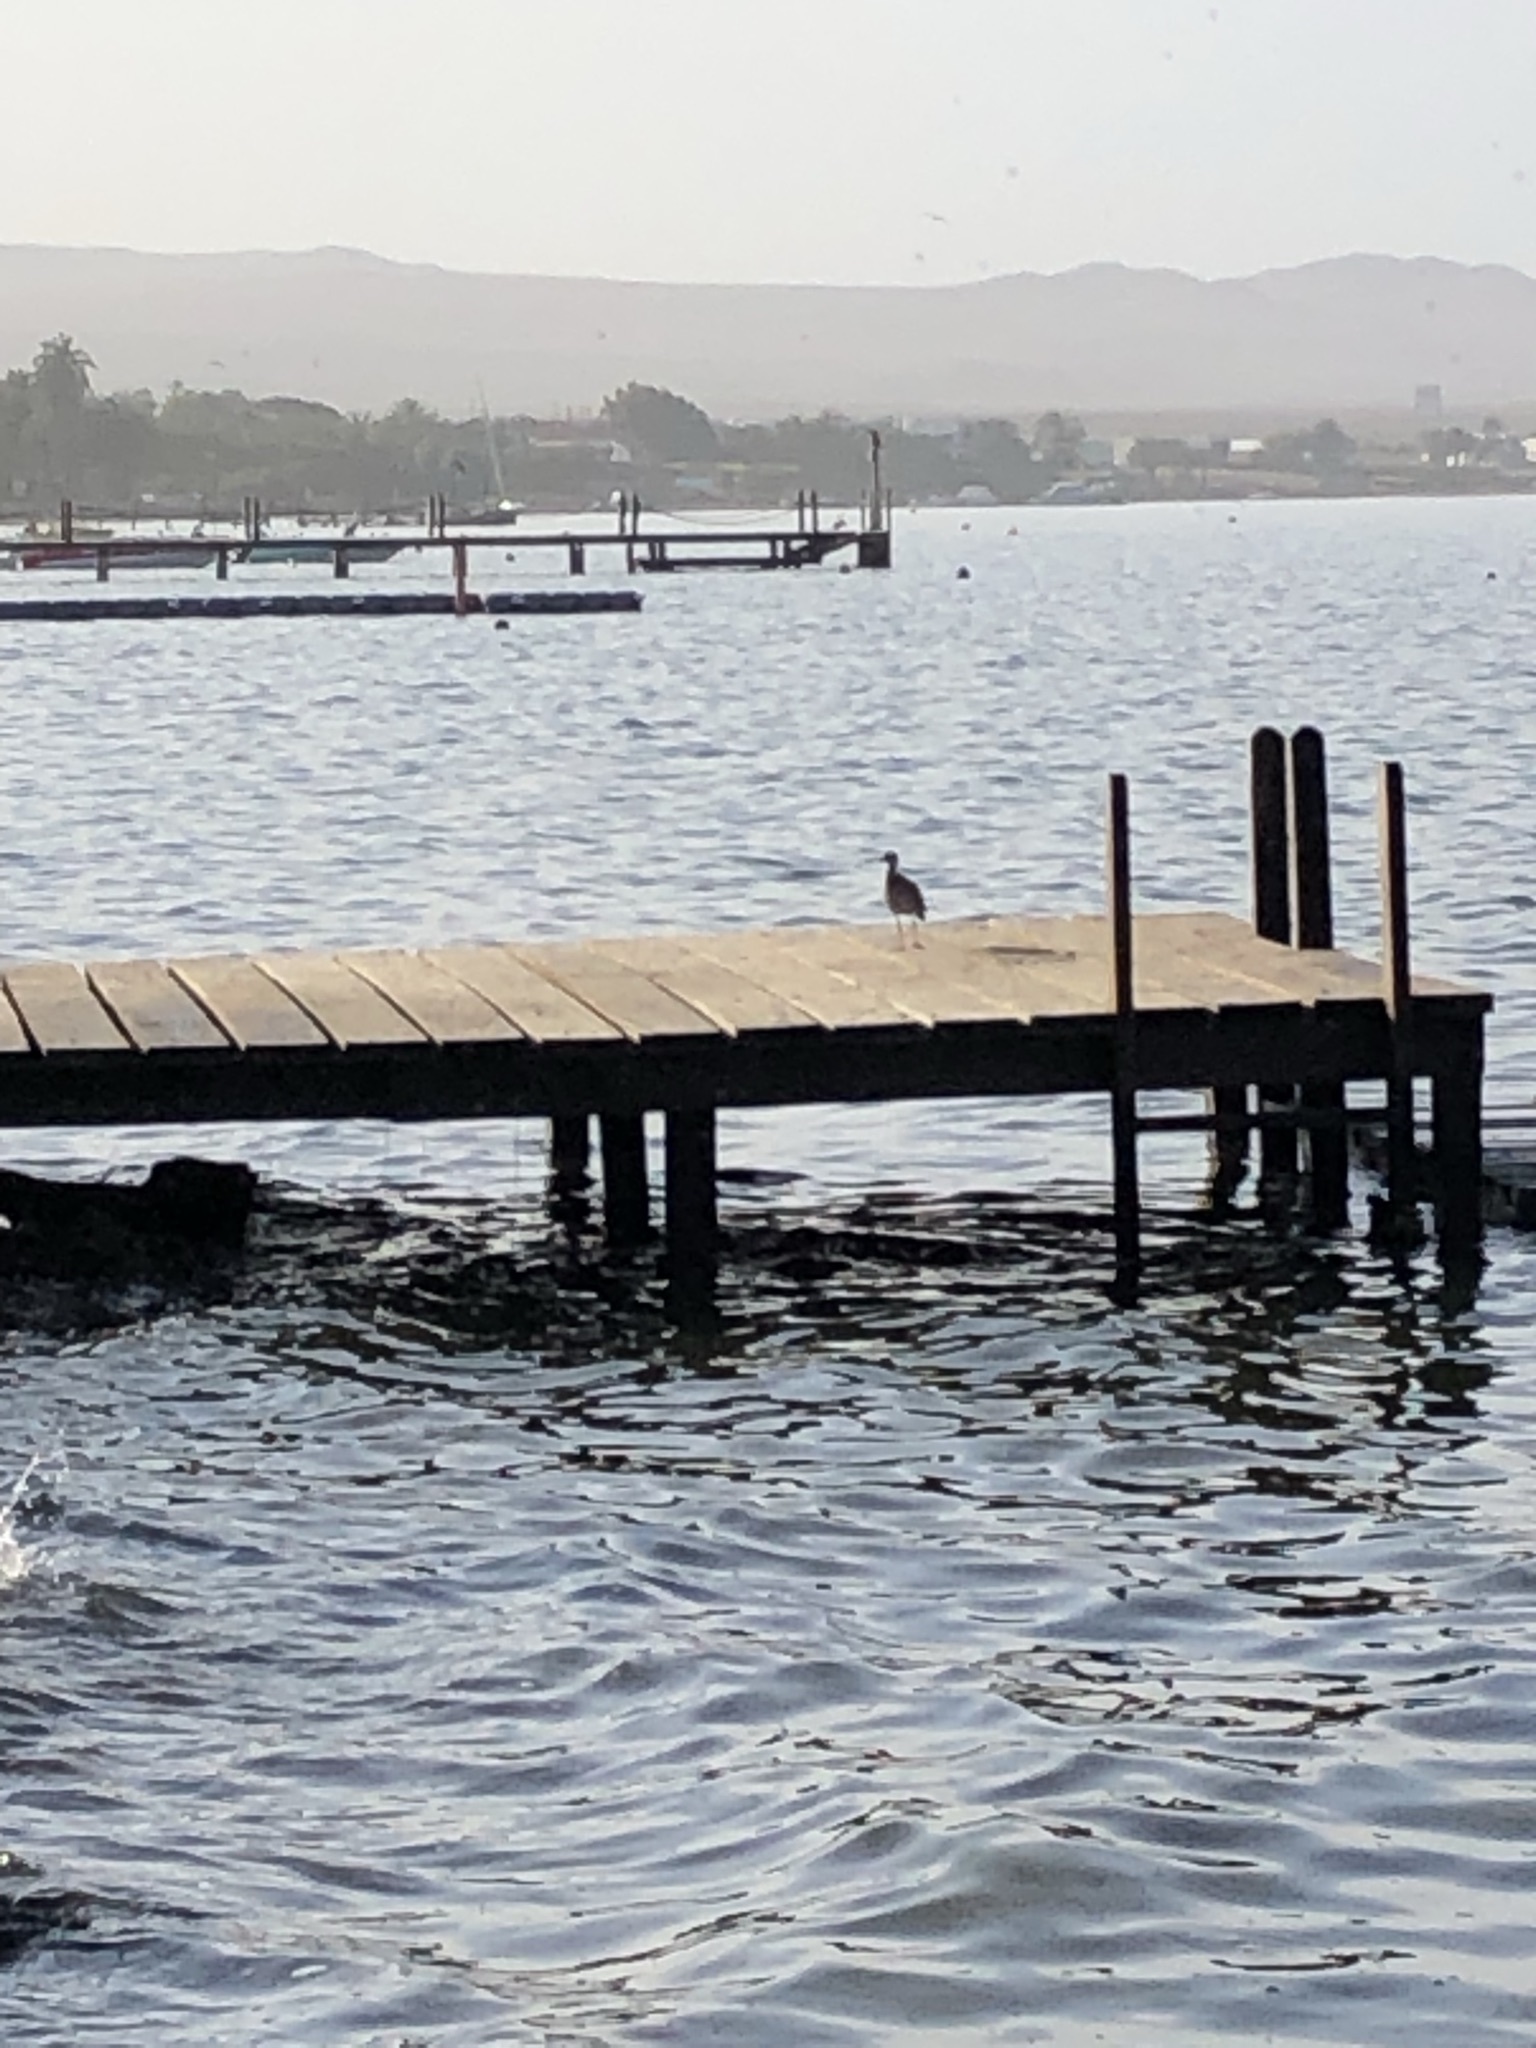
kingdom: Animalia
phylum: Chordata
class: Aves
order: Charadriiformes
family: Scolopacidae
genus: Numenius
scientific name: Numenius phaeopus
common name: Whimbrel
